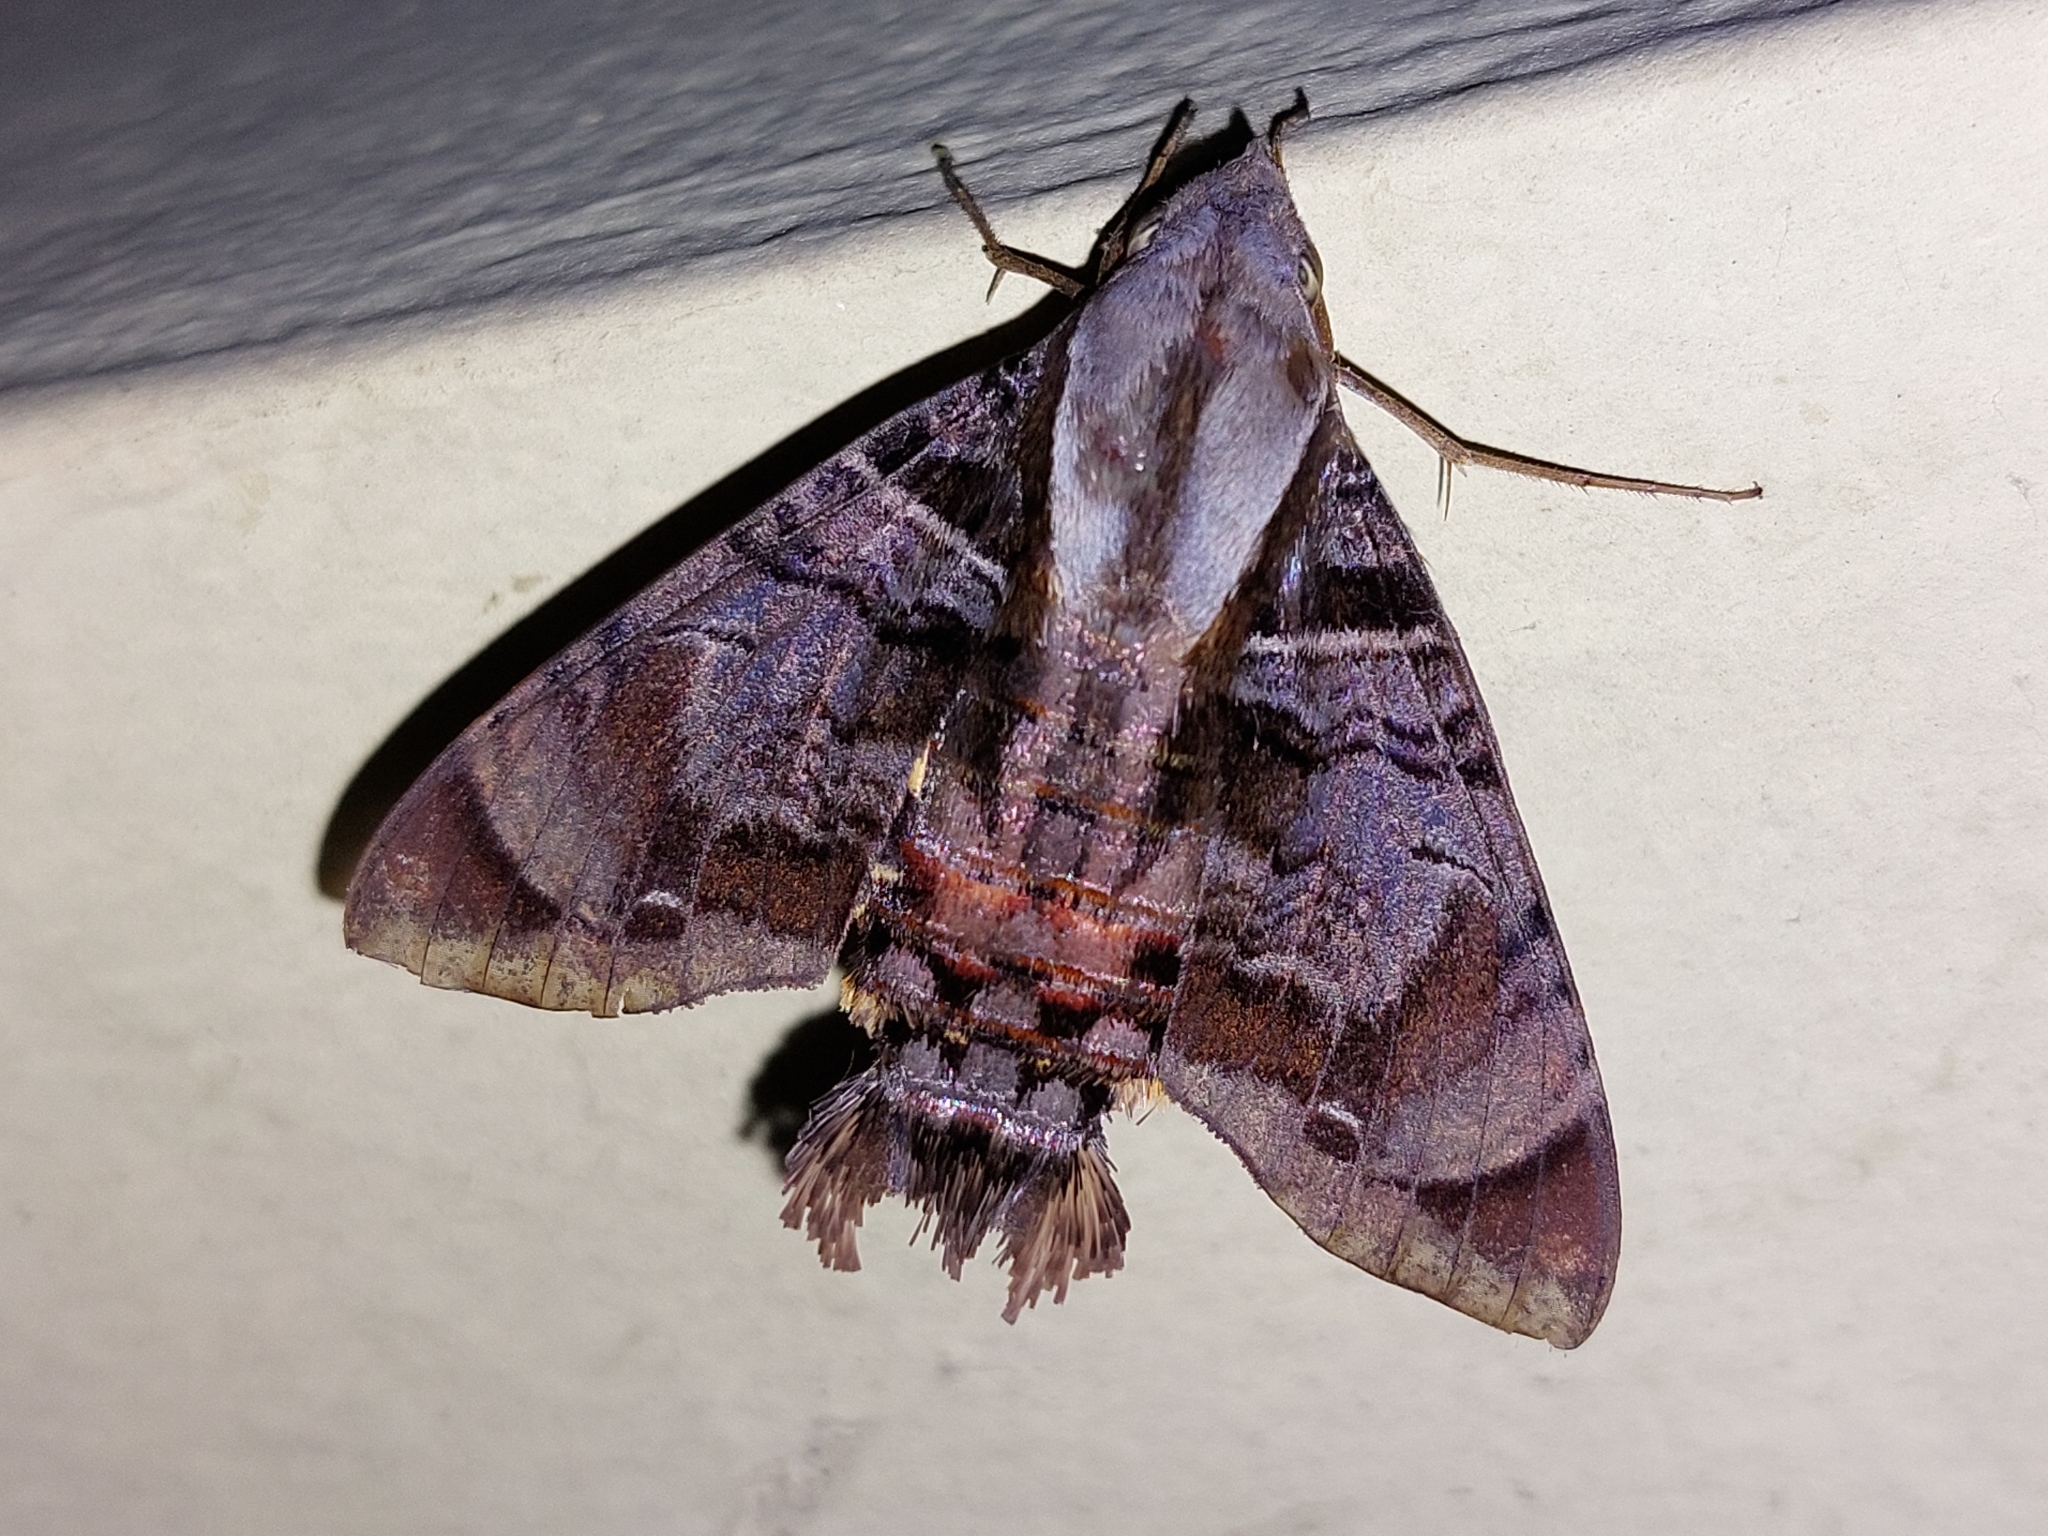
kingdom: Animalia
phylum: Arthropoda
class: Insecta
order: Lepidoptera
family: Sphingidae
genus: Eupyrrhoglossum
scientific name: Eupyrrhoglossum sagra
